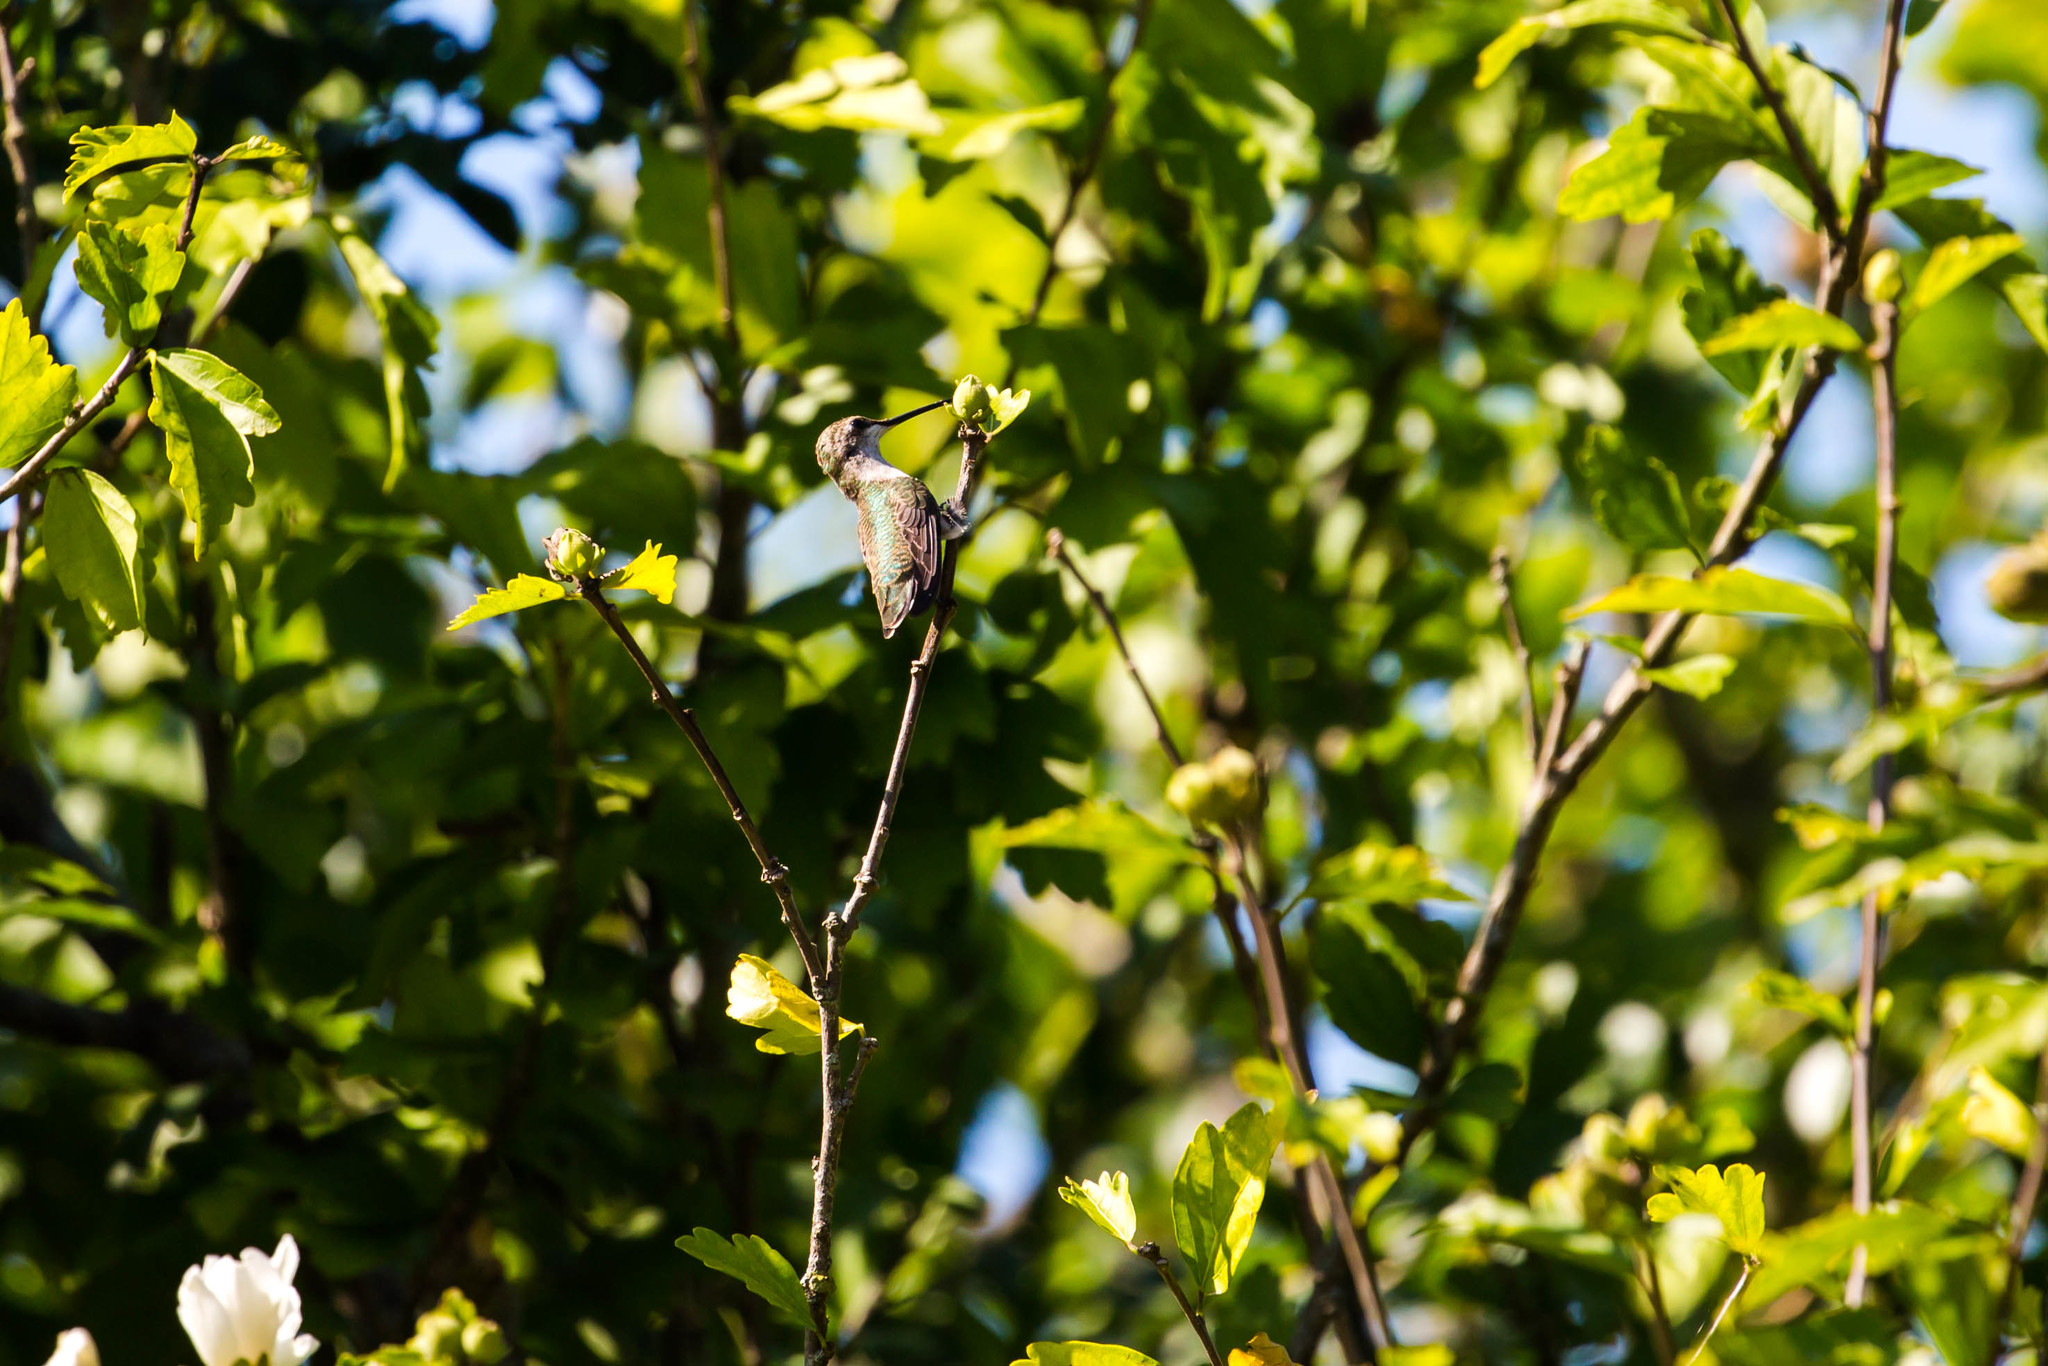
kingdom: Animalia
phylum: Chordata
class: Aves
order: Apodiformes
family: Trochilidae
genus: Archilochus
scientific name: Archilochus colubris
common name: Ruby-throated hummingbird
